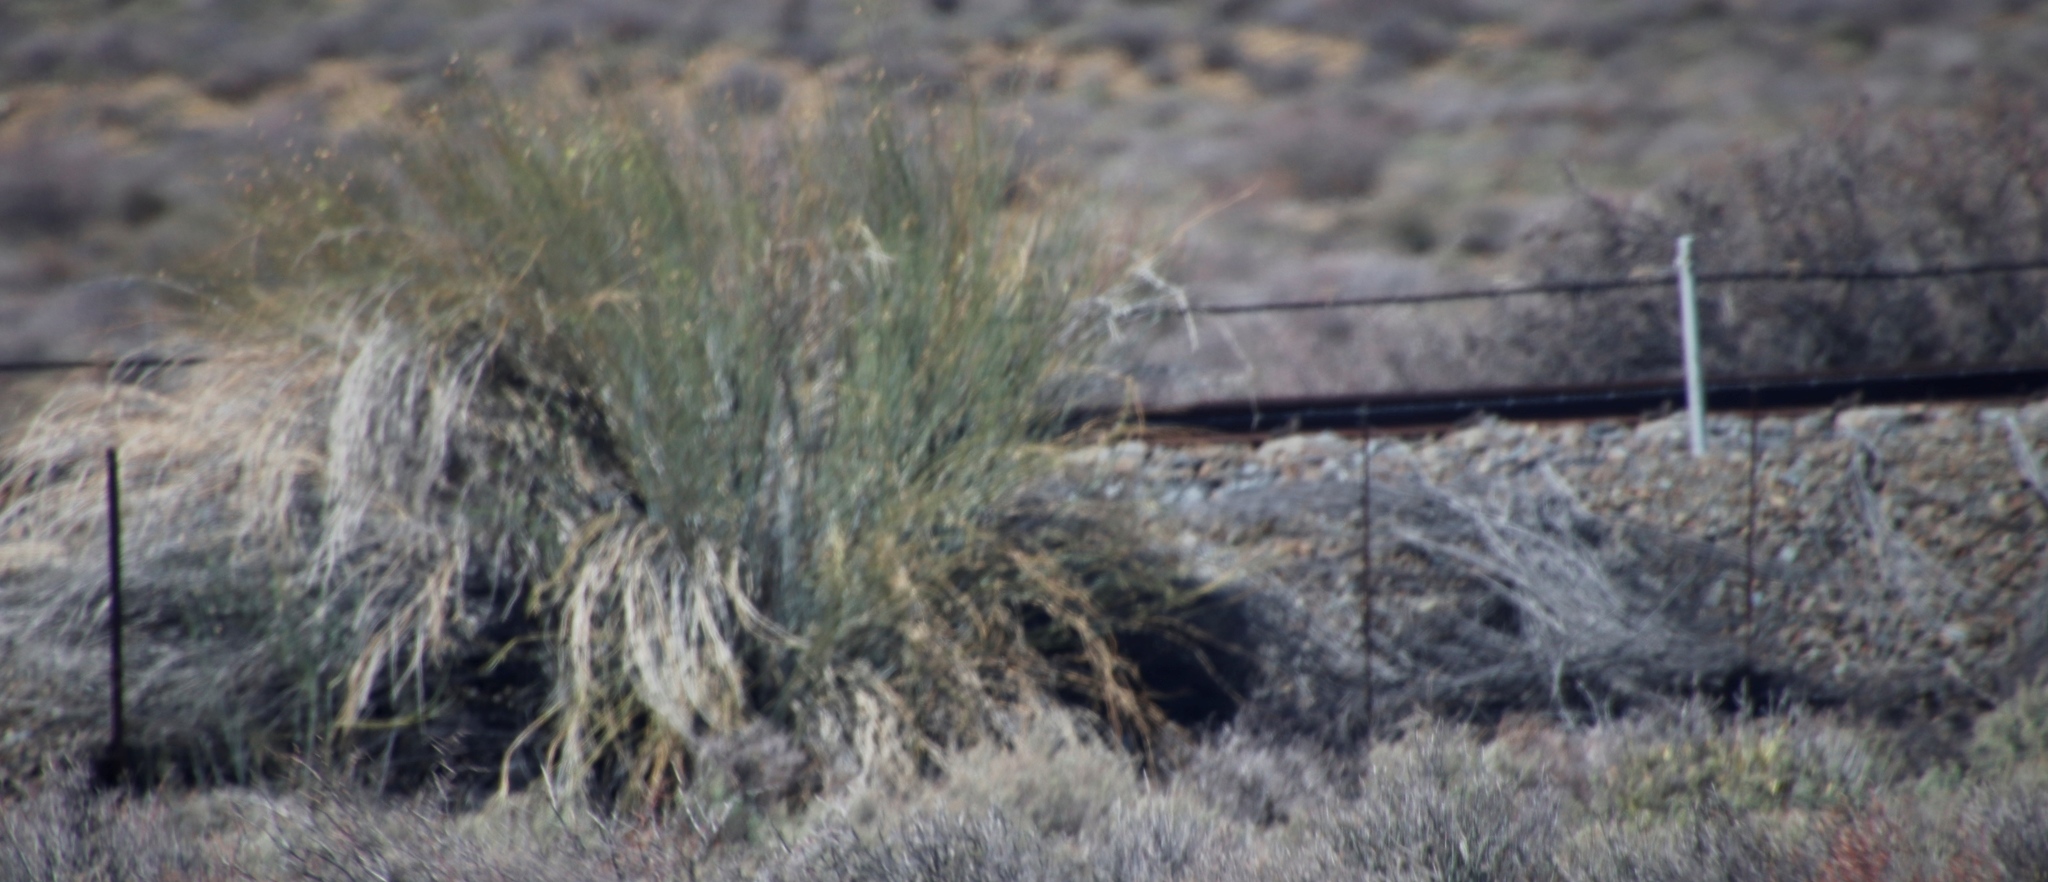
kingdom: Plantae
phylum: Tracheophyta
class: Magnoliopsida
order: Gentianales
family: Apocynaceae
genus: Gomphocarpus
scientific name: Gomphocarpus filiformis
